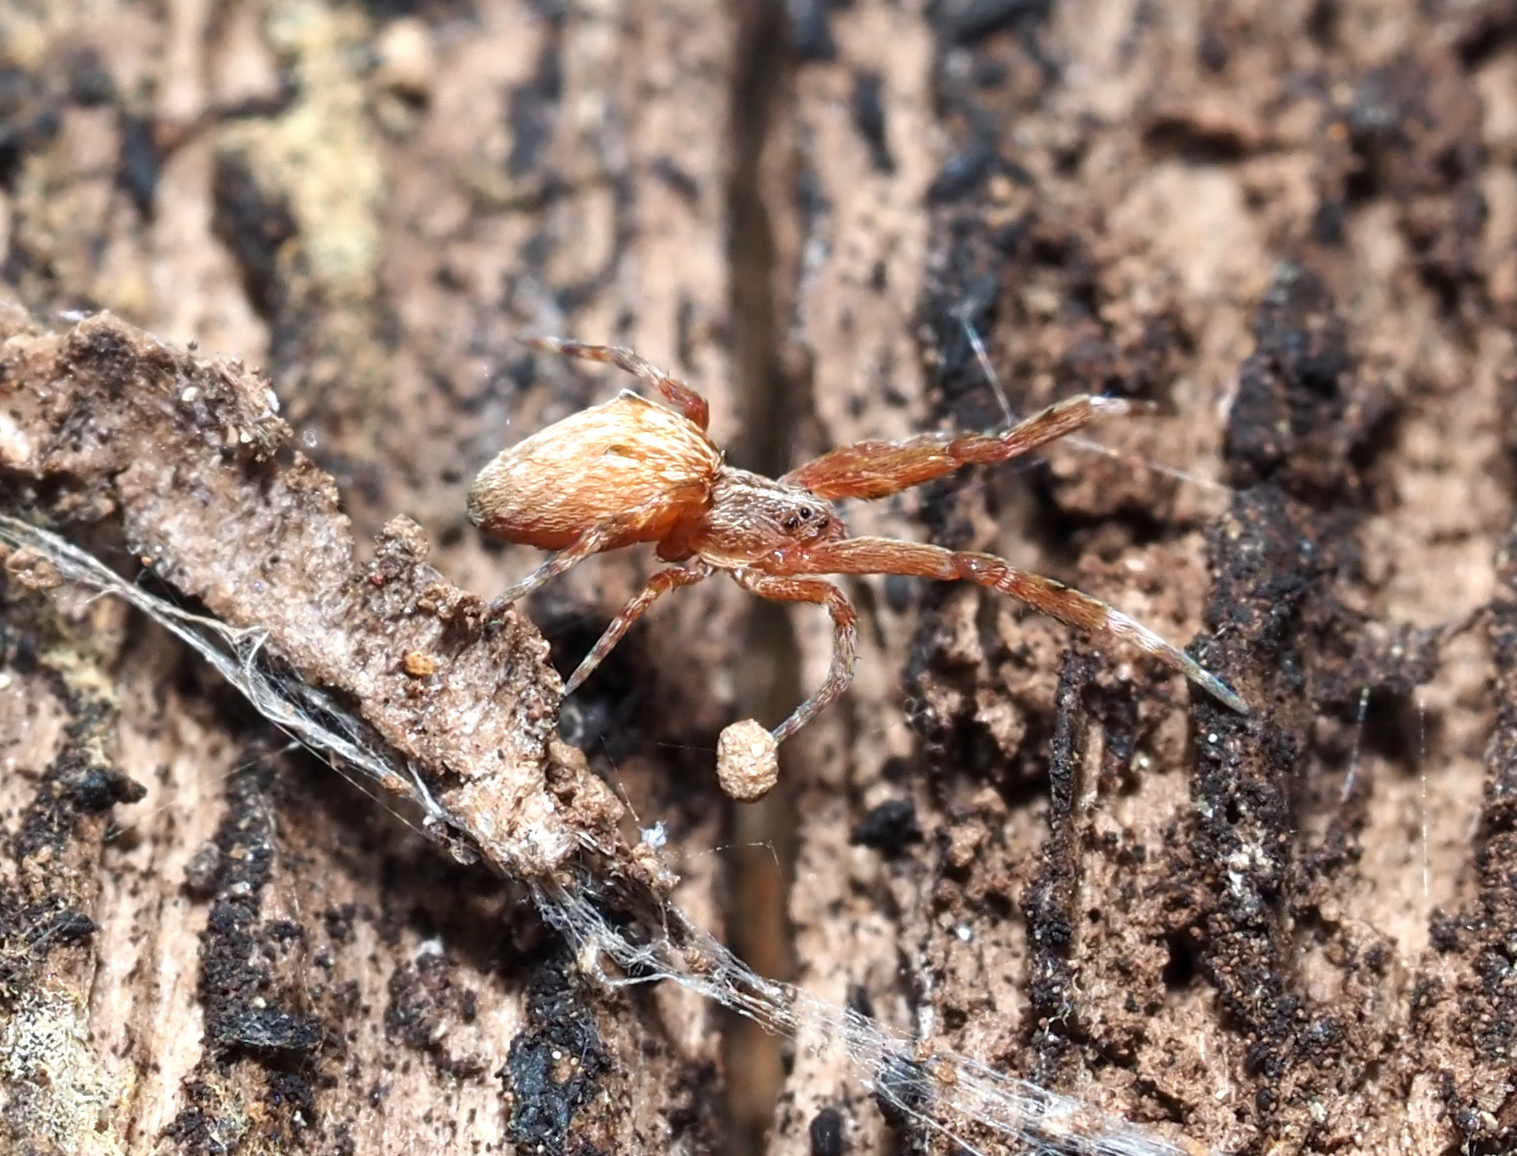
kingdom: Animalia
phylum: Arthropoda
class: Arachnida
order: Araneae
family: Uloboridae
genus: Uloborus
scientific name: Uloborus glomosus
